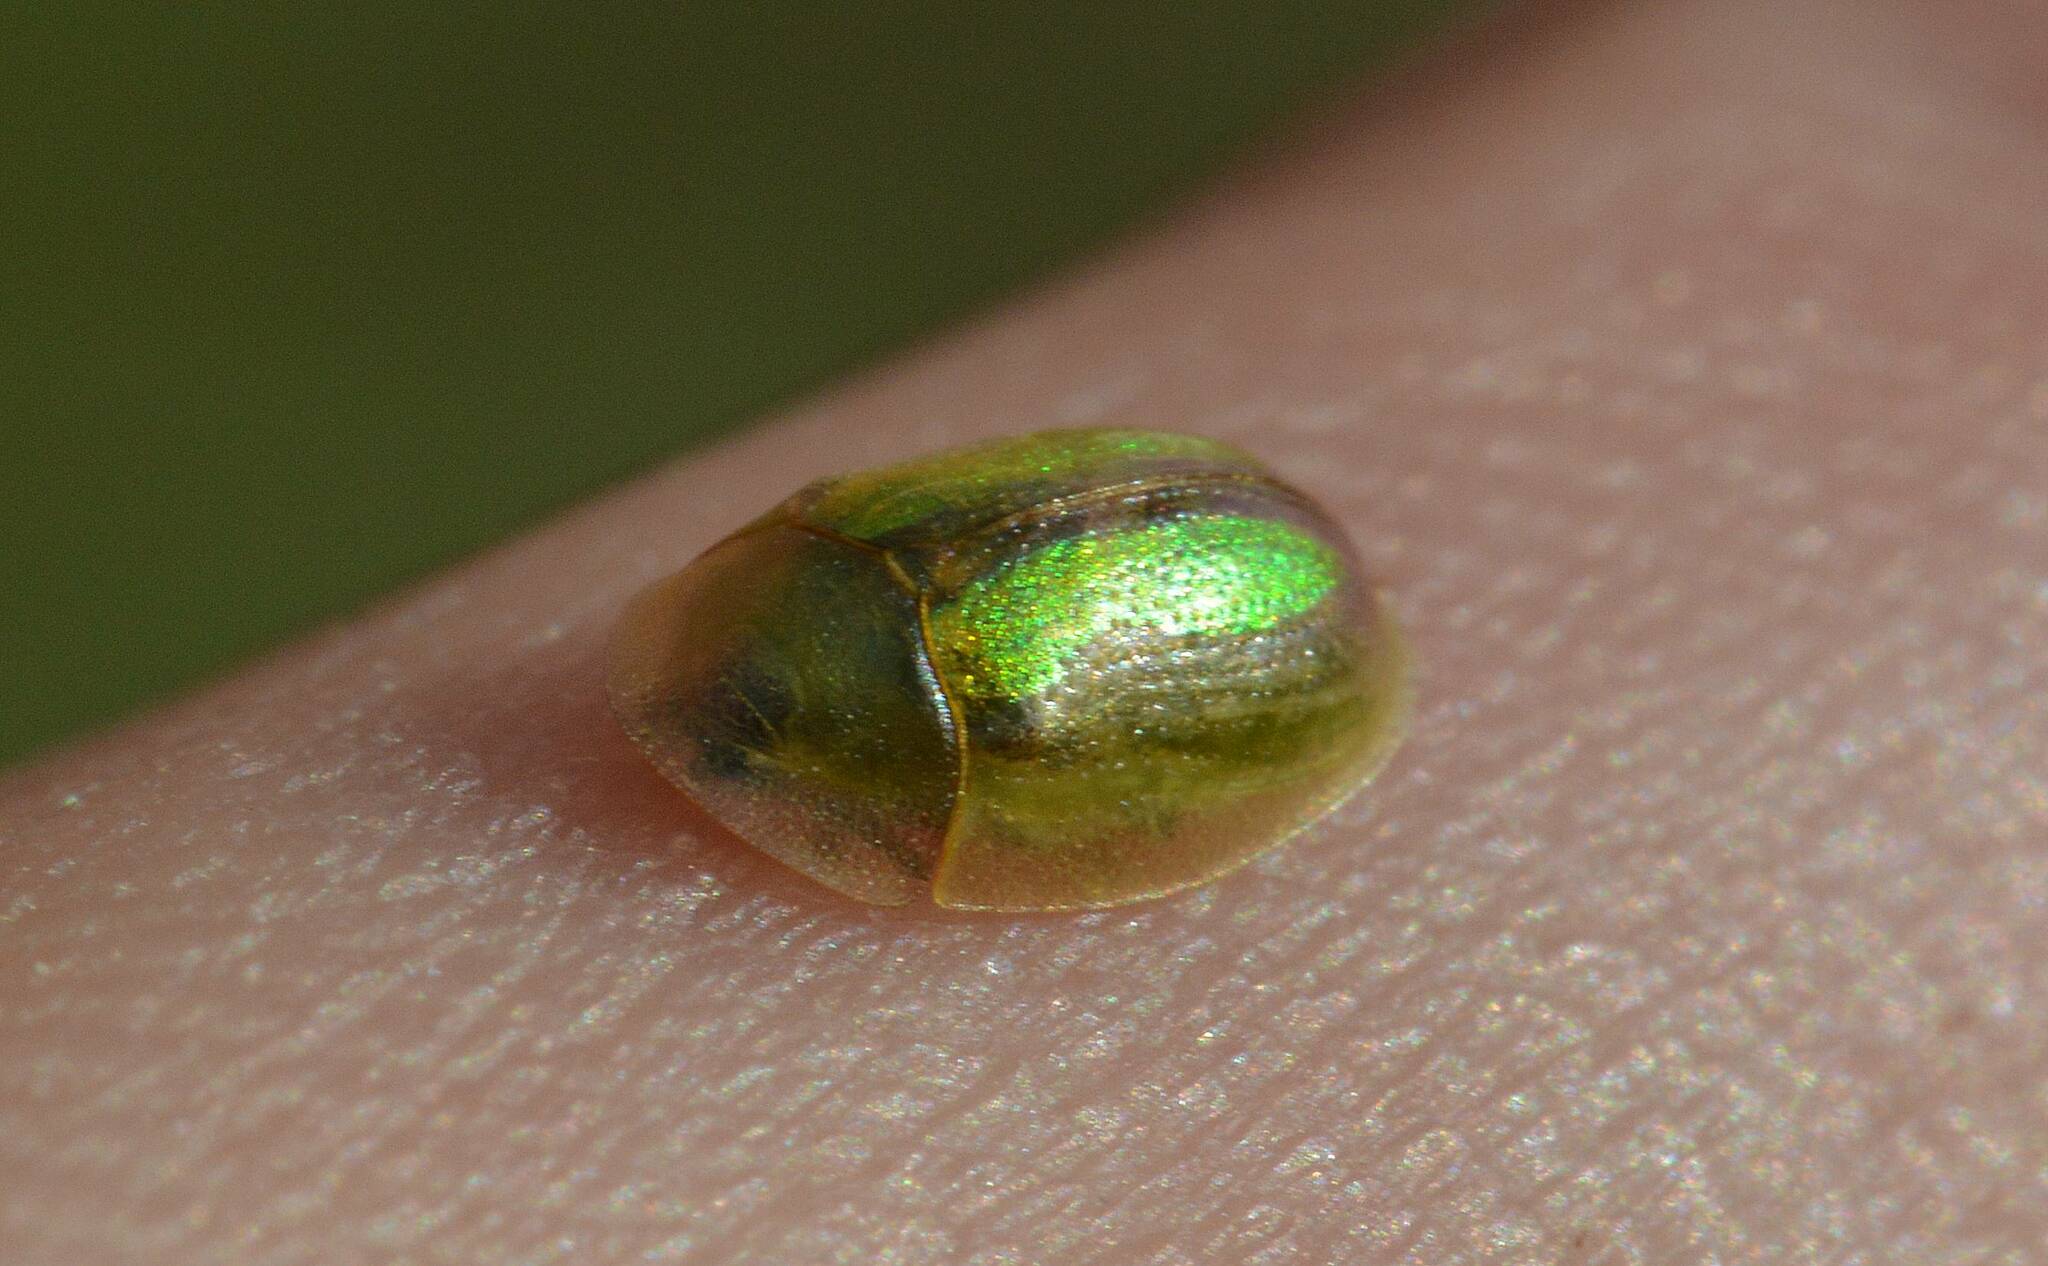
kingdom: Animalia
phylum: Arthropoda
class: Insecta
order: Coleoptera
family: Chrysomelidae
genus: Cassida
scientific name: Cassida vittata
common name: Bordered tortoise beetle
